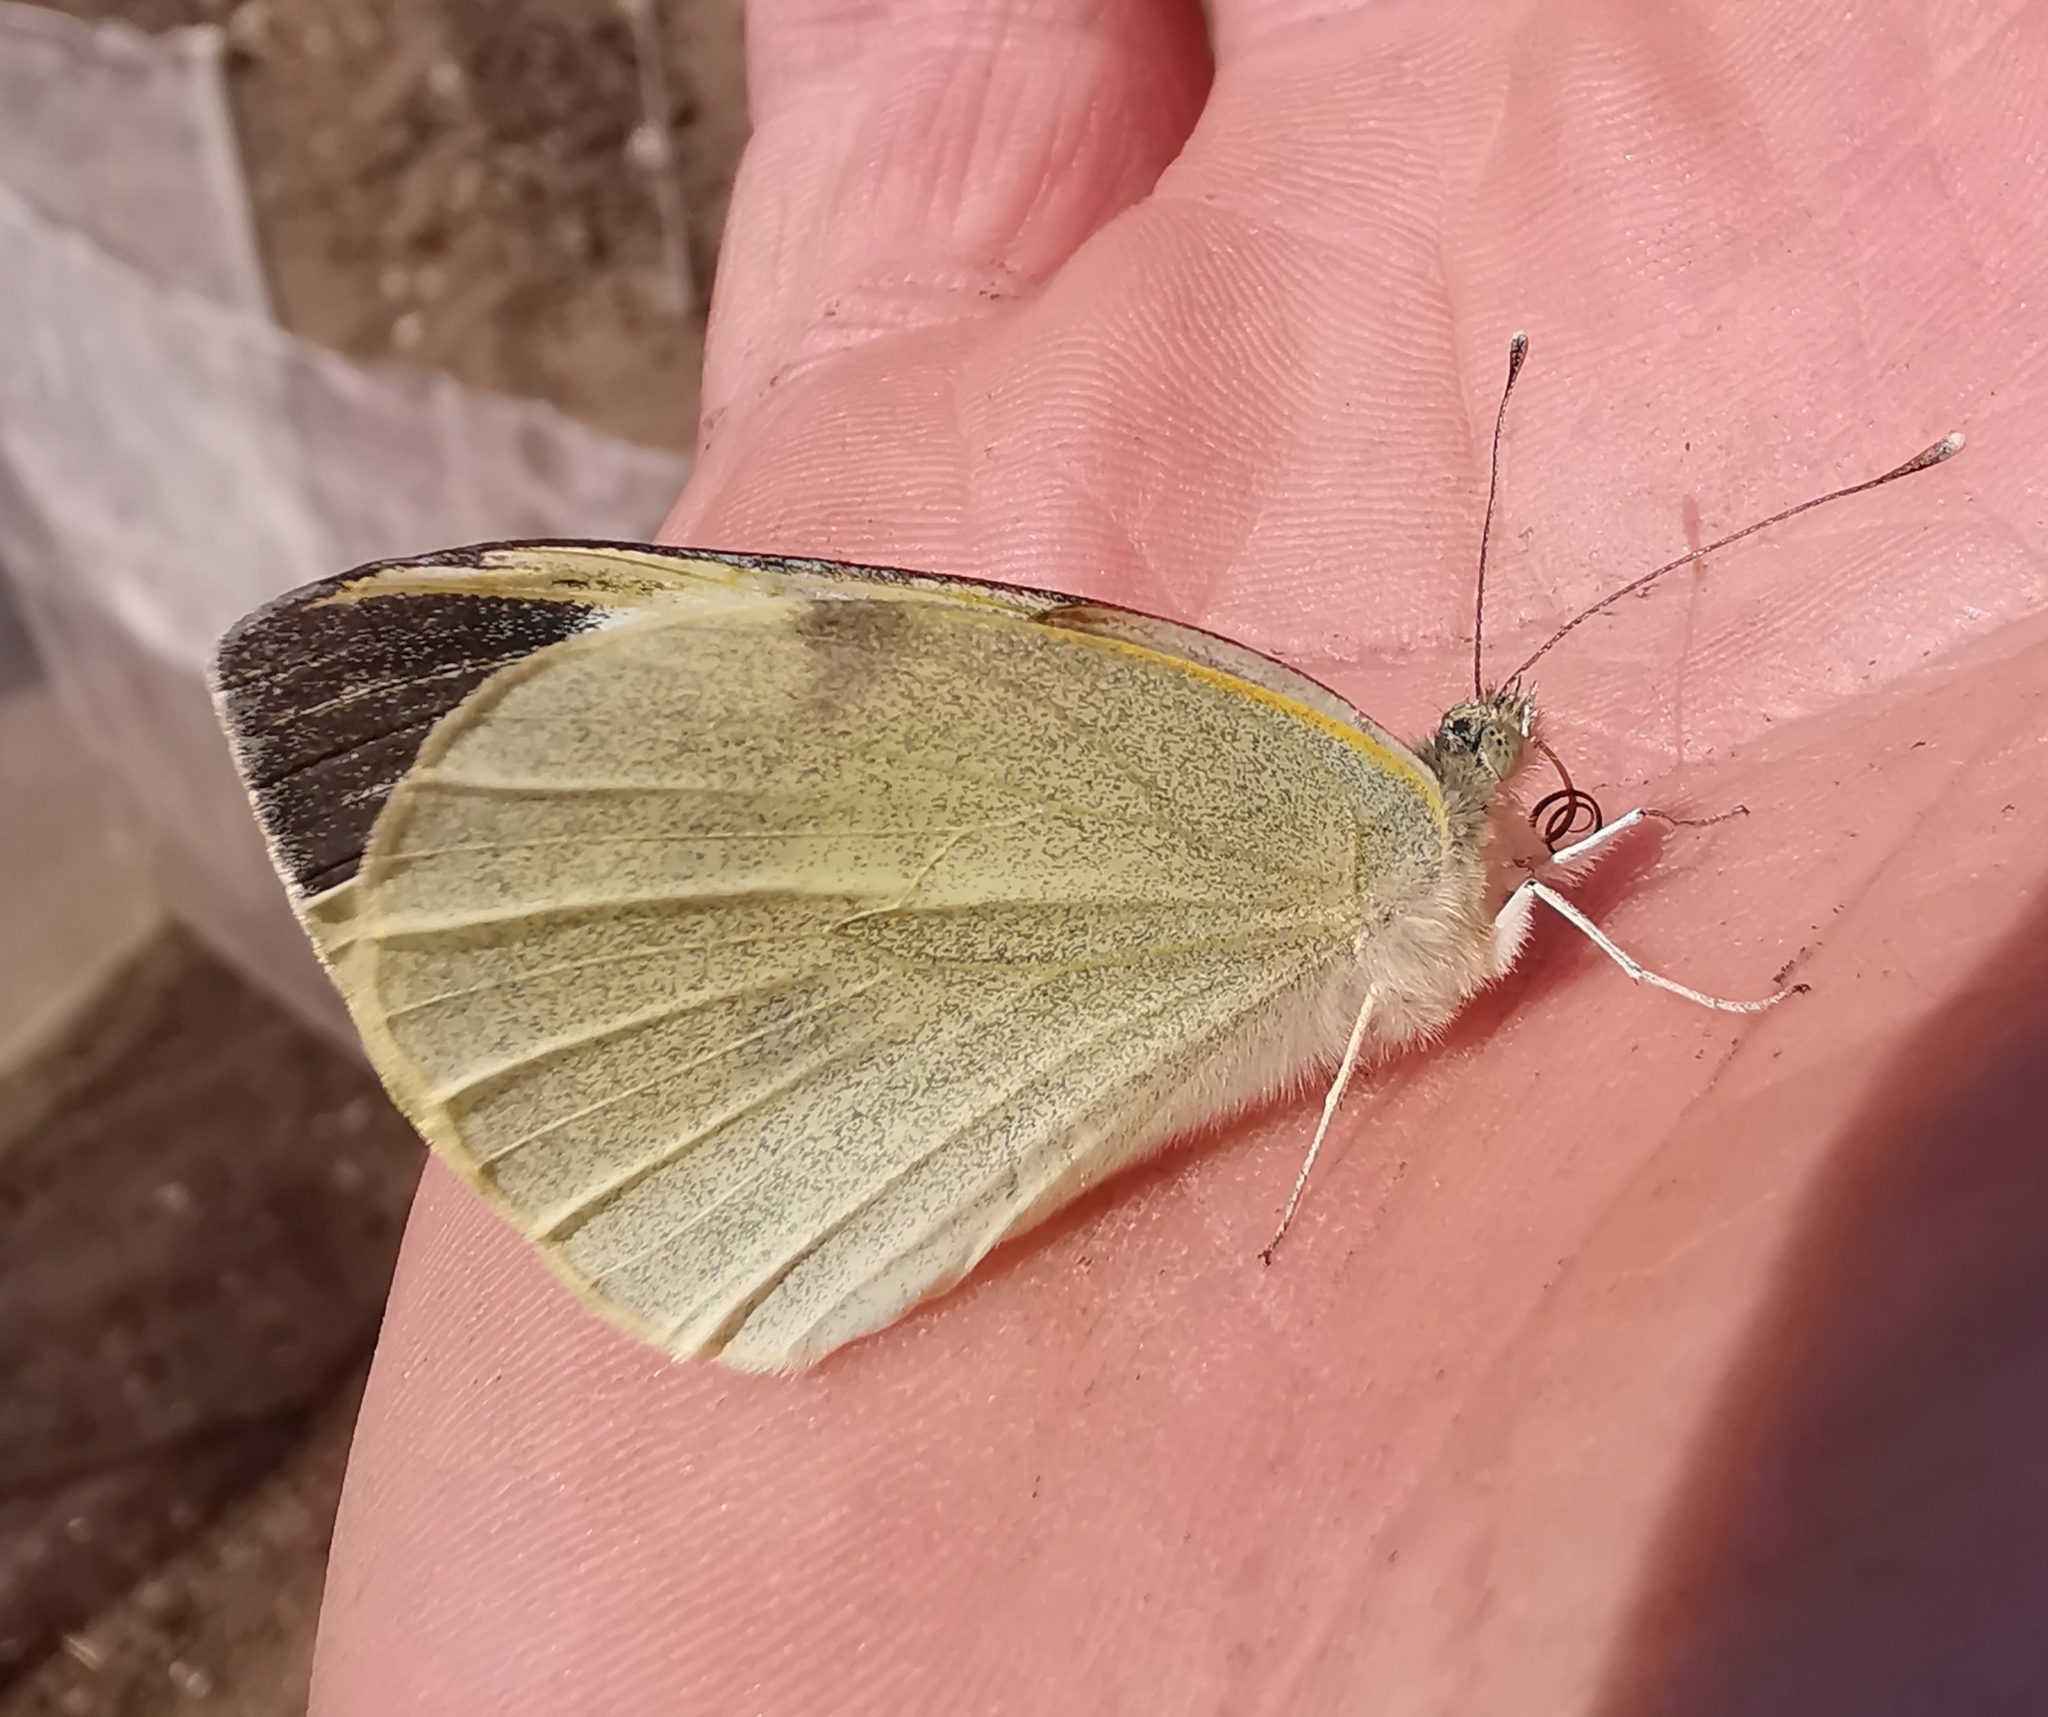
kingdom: Animalia
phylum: Arthropoda
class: Insecta
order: Lepidoptera
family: Pieridae
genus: Pieris
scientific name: Pieris brassicae
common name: Large white
